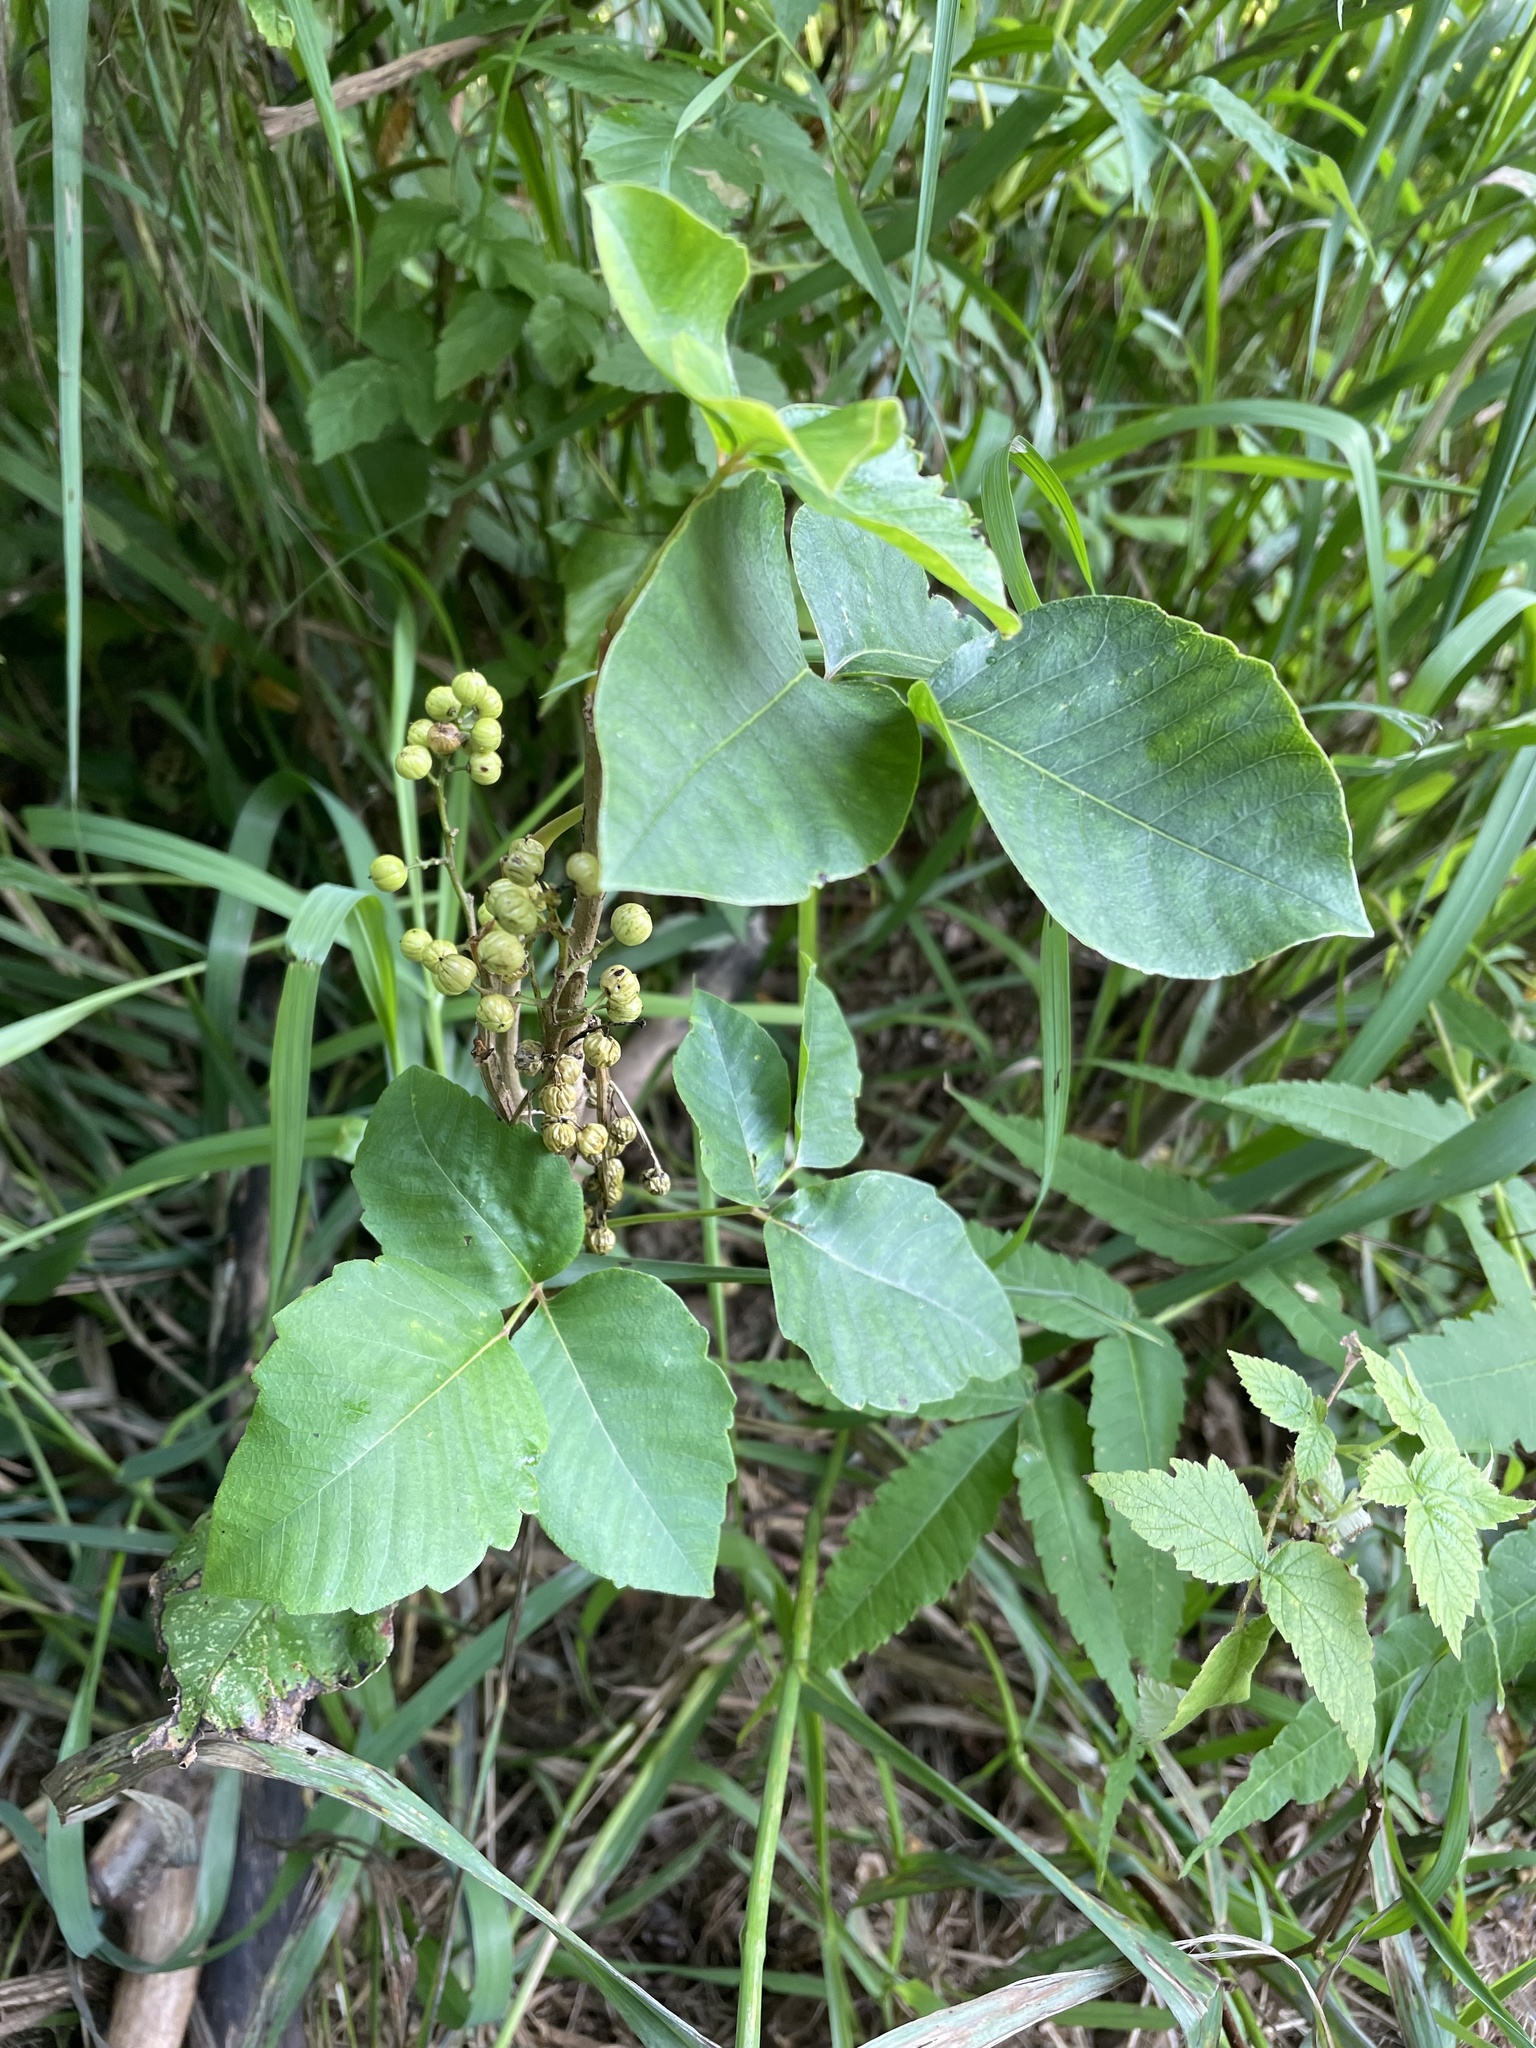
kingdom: Plantae
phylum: Tracheophyta
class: Magnoliopsida
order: Sapindales
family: Anacardiaceae
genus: Toxicodendron
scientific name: Toxicodendron rydbergii
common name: Rydberg's poison-ivy
